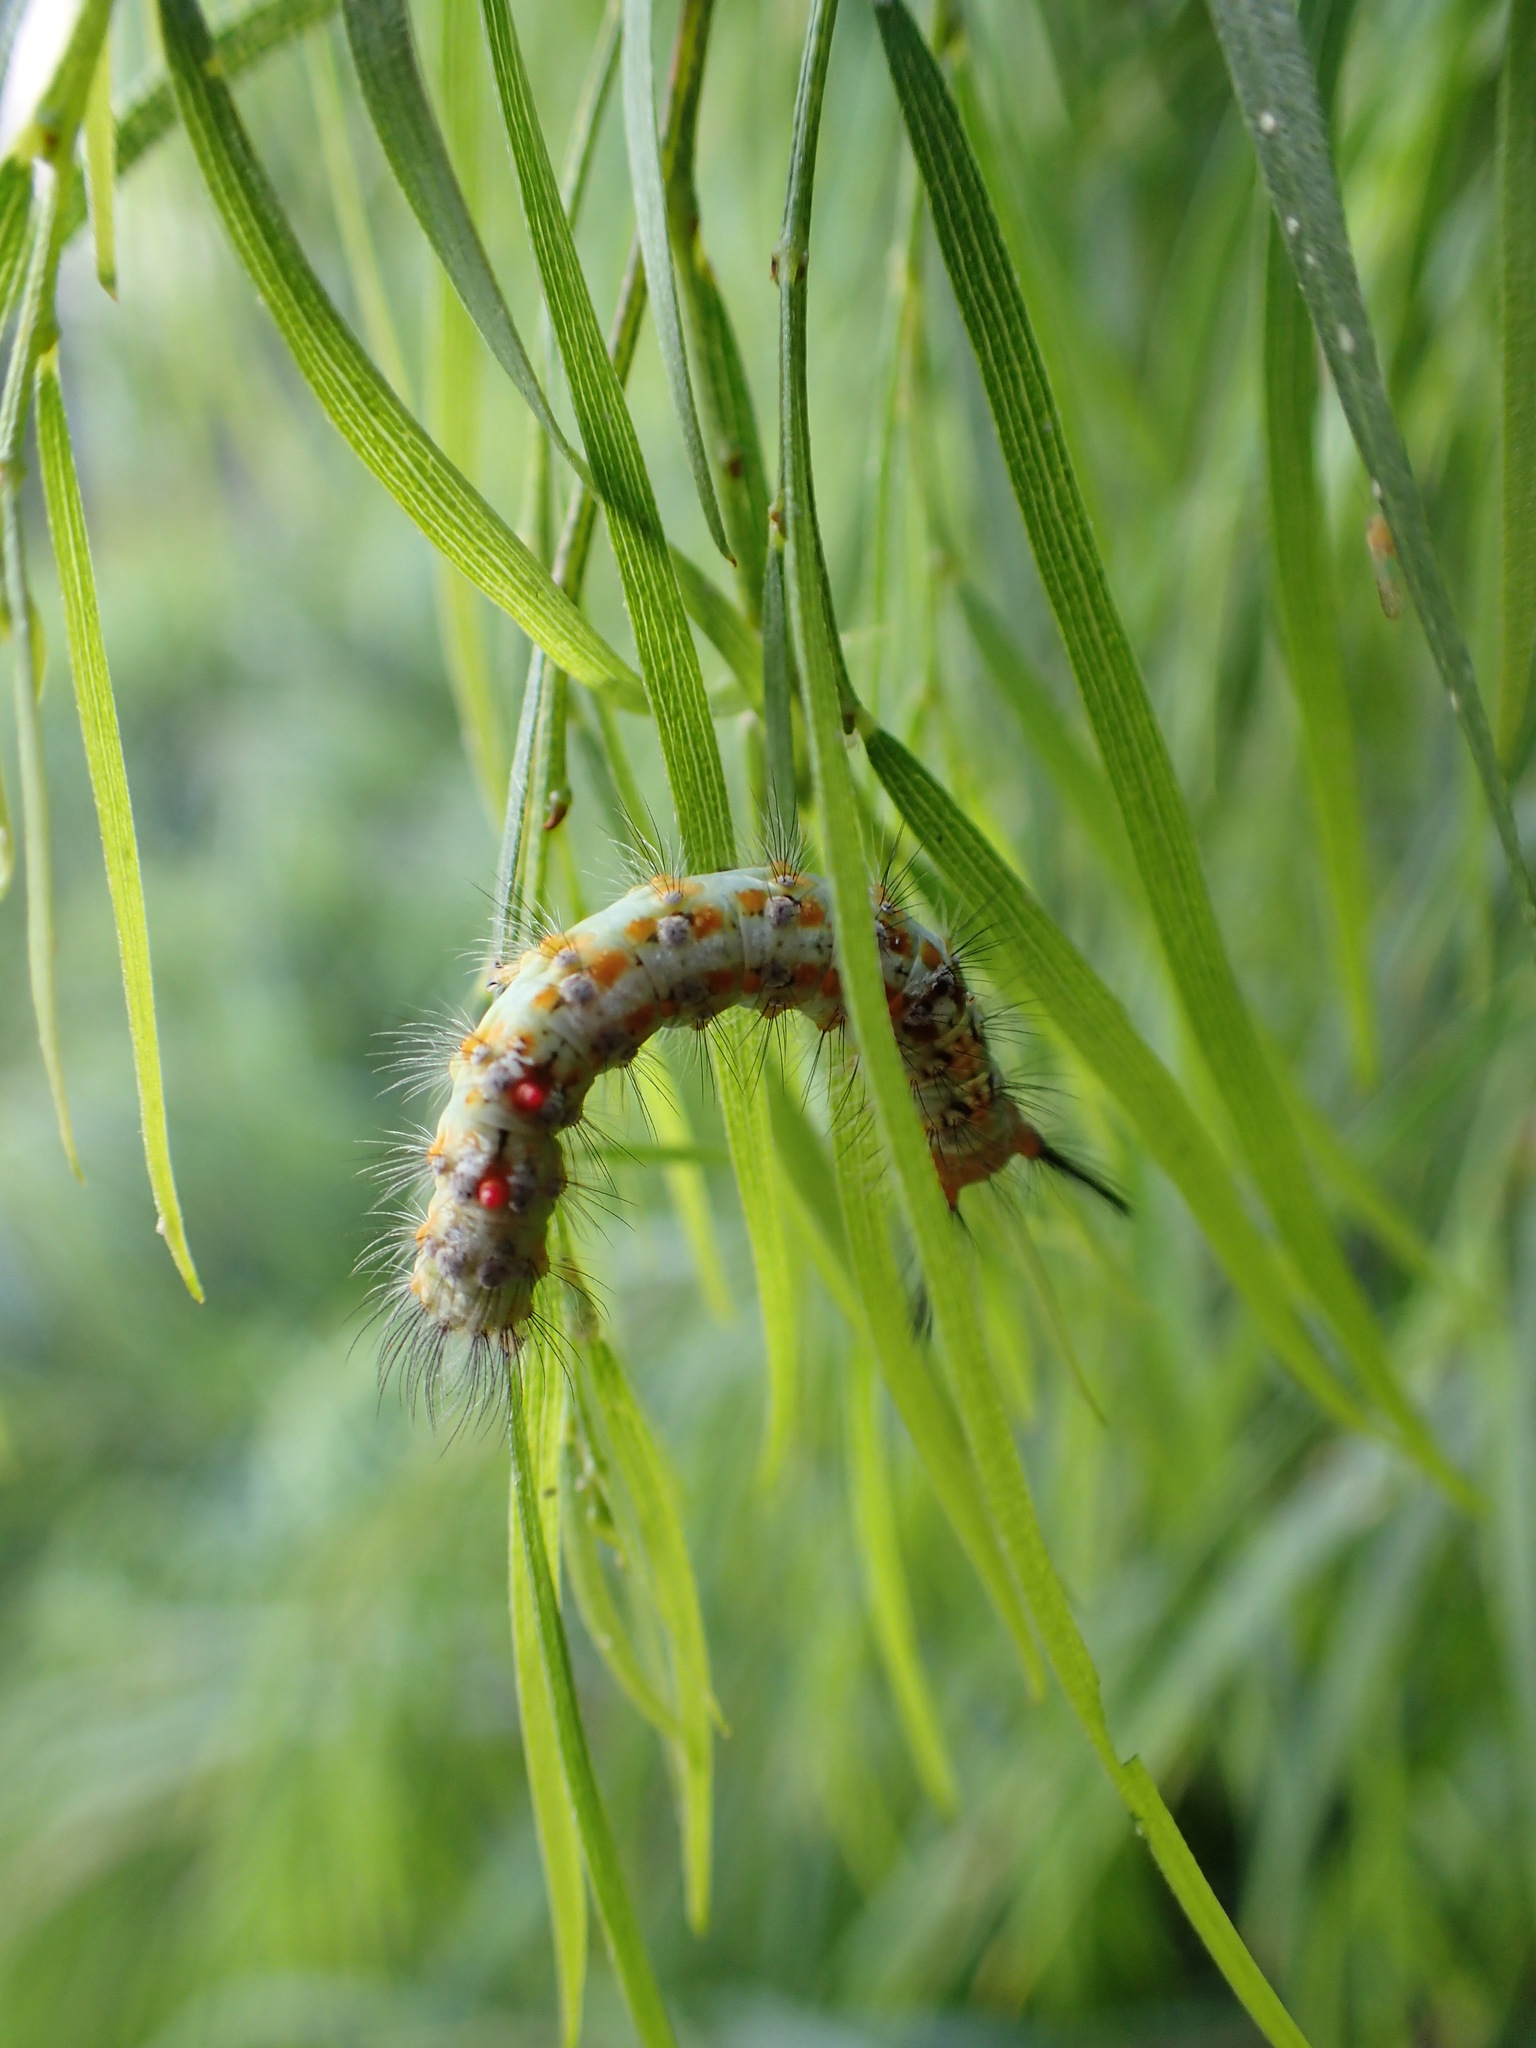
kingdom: Animalia
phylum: Arthropoda
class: Insecta
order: Lepidoptera
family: Erebidae
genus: Acyphas
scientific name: Acyphas semiochrea
